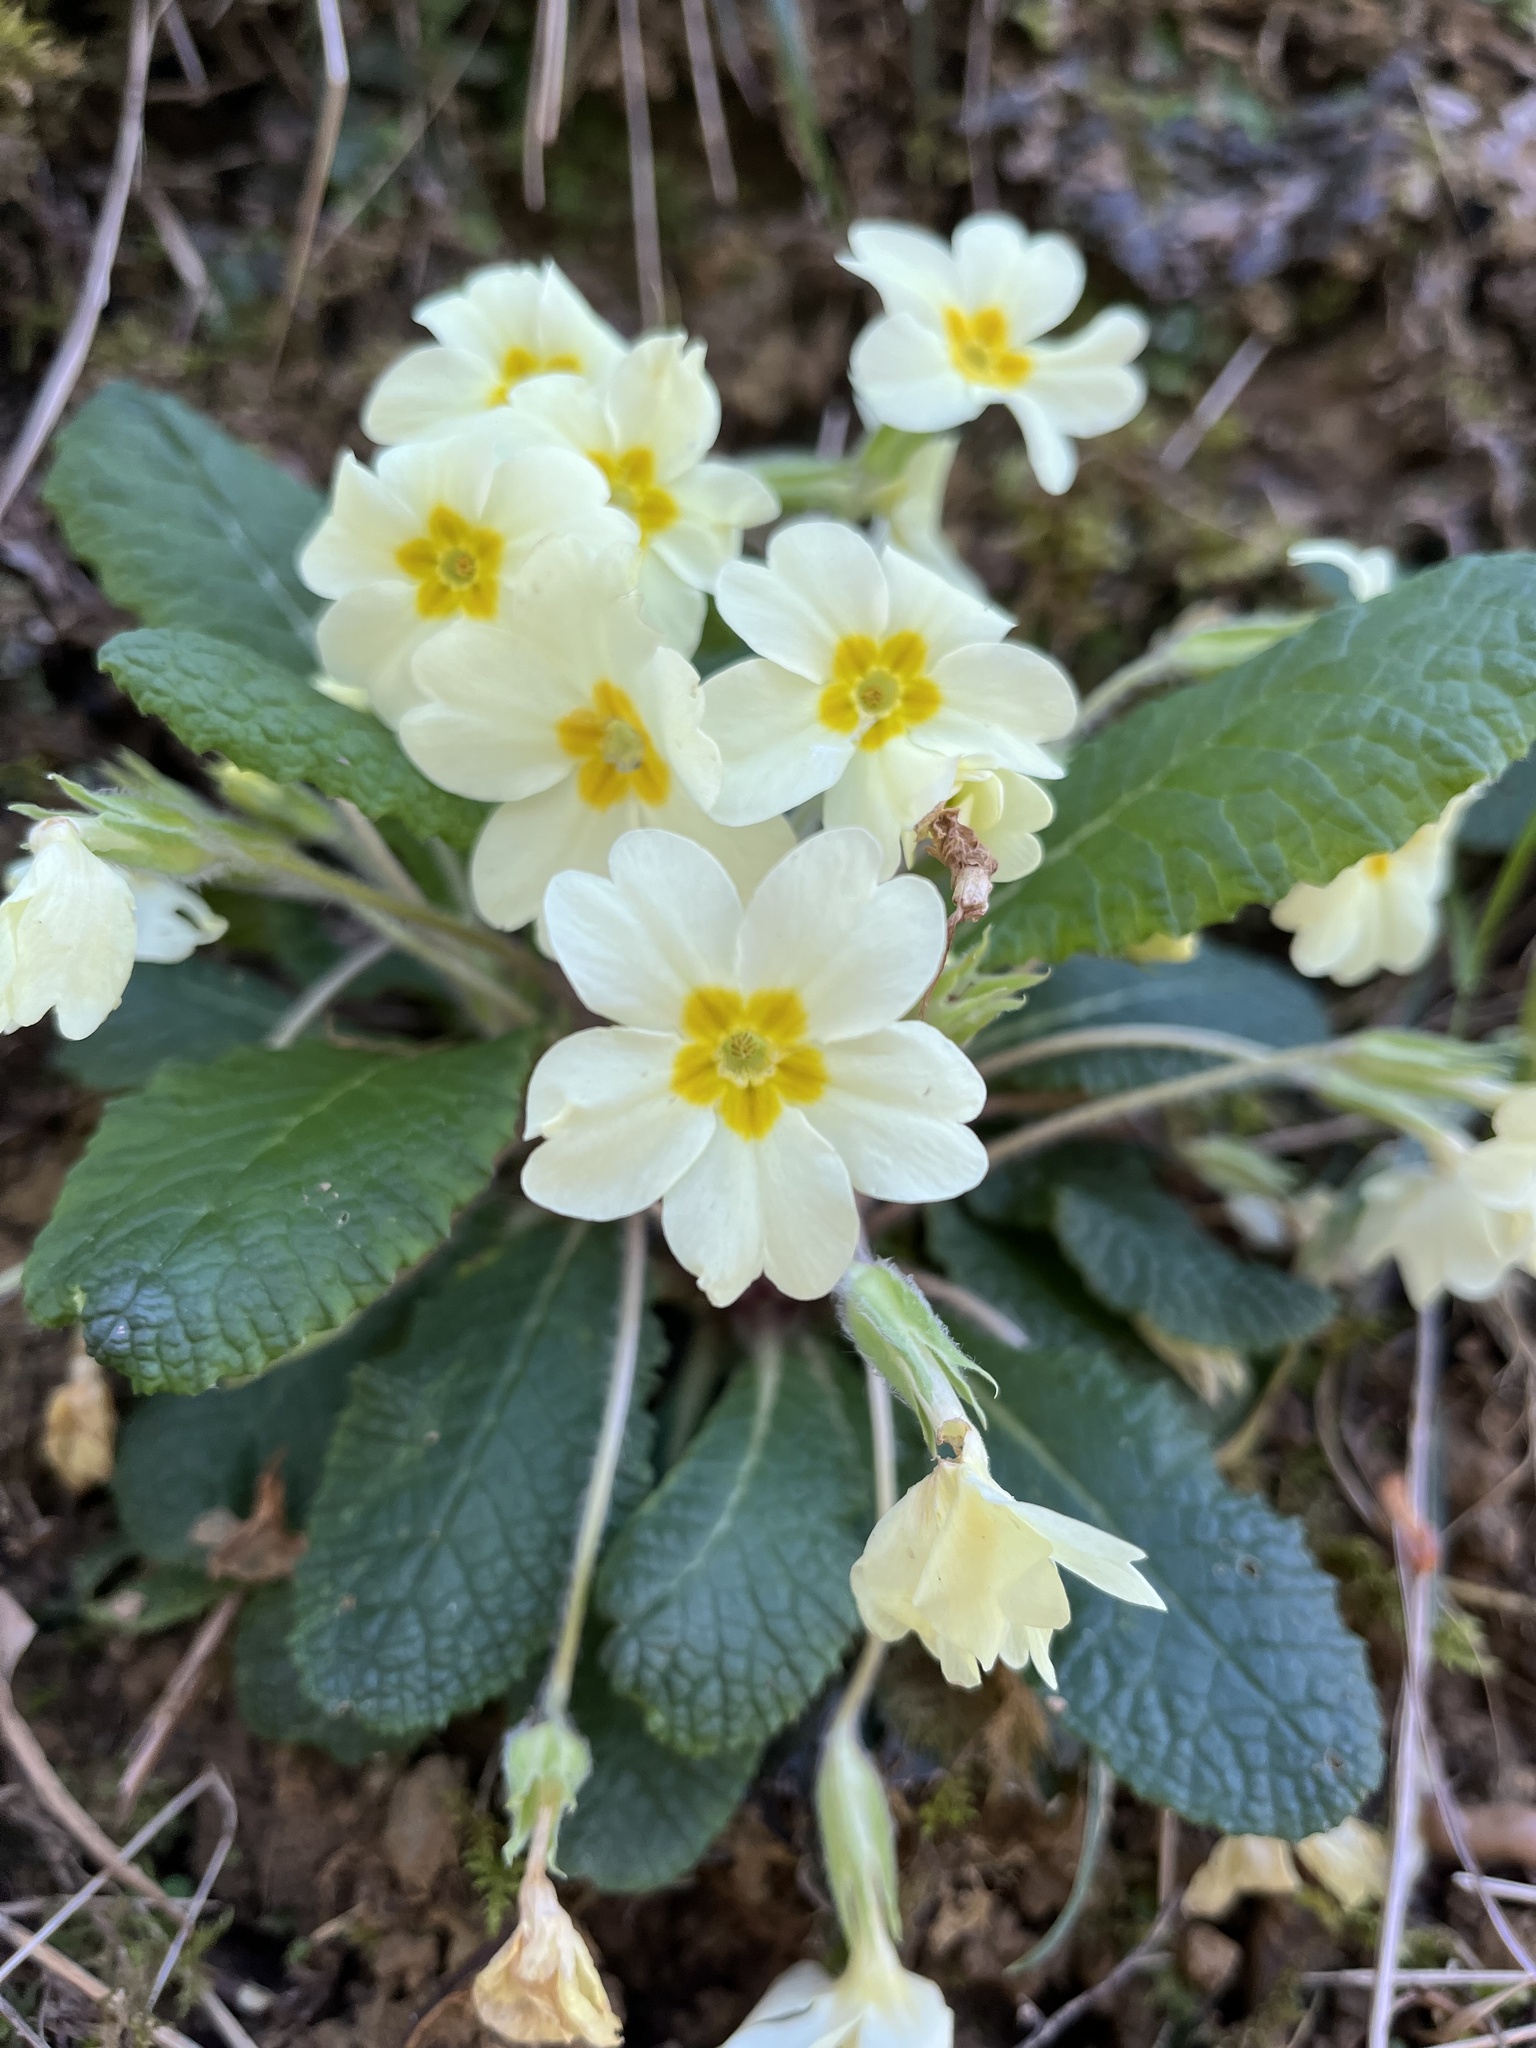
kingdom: Plantae
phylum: Tracheophyta
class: Magnoliopsida
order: Ericales
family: Primulaceae
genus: Primula
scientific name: Primula vulgaris
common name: Primrose
